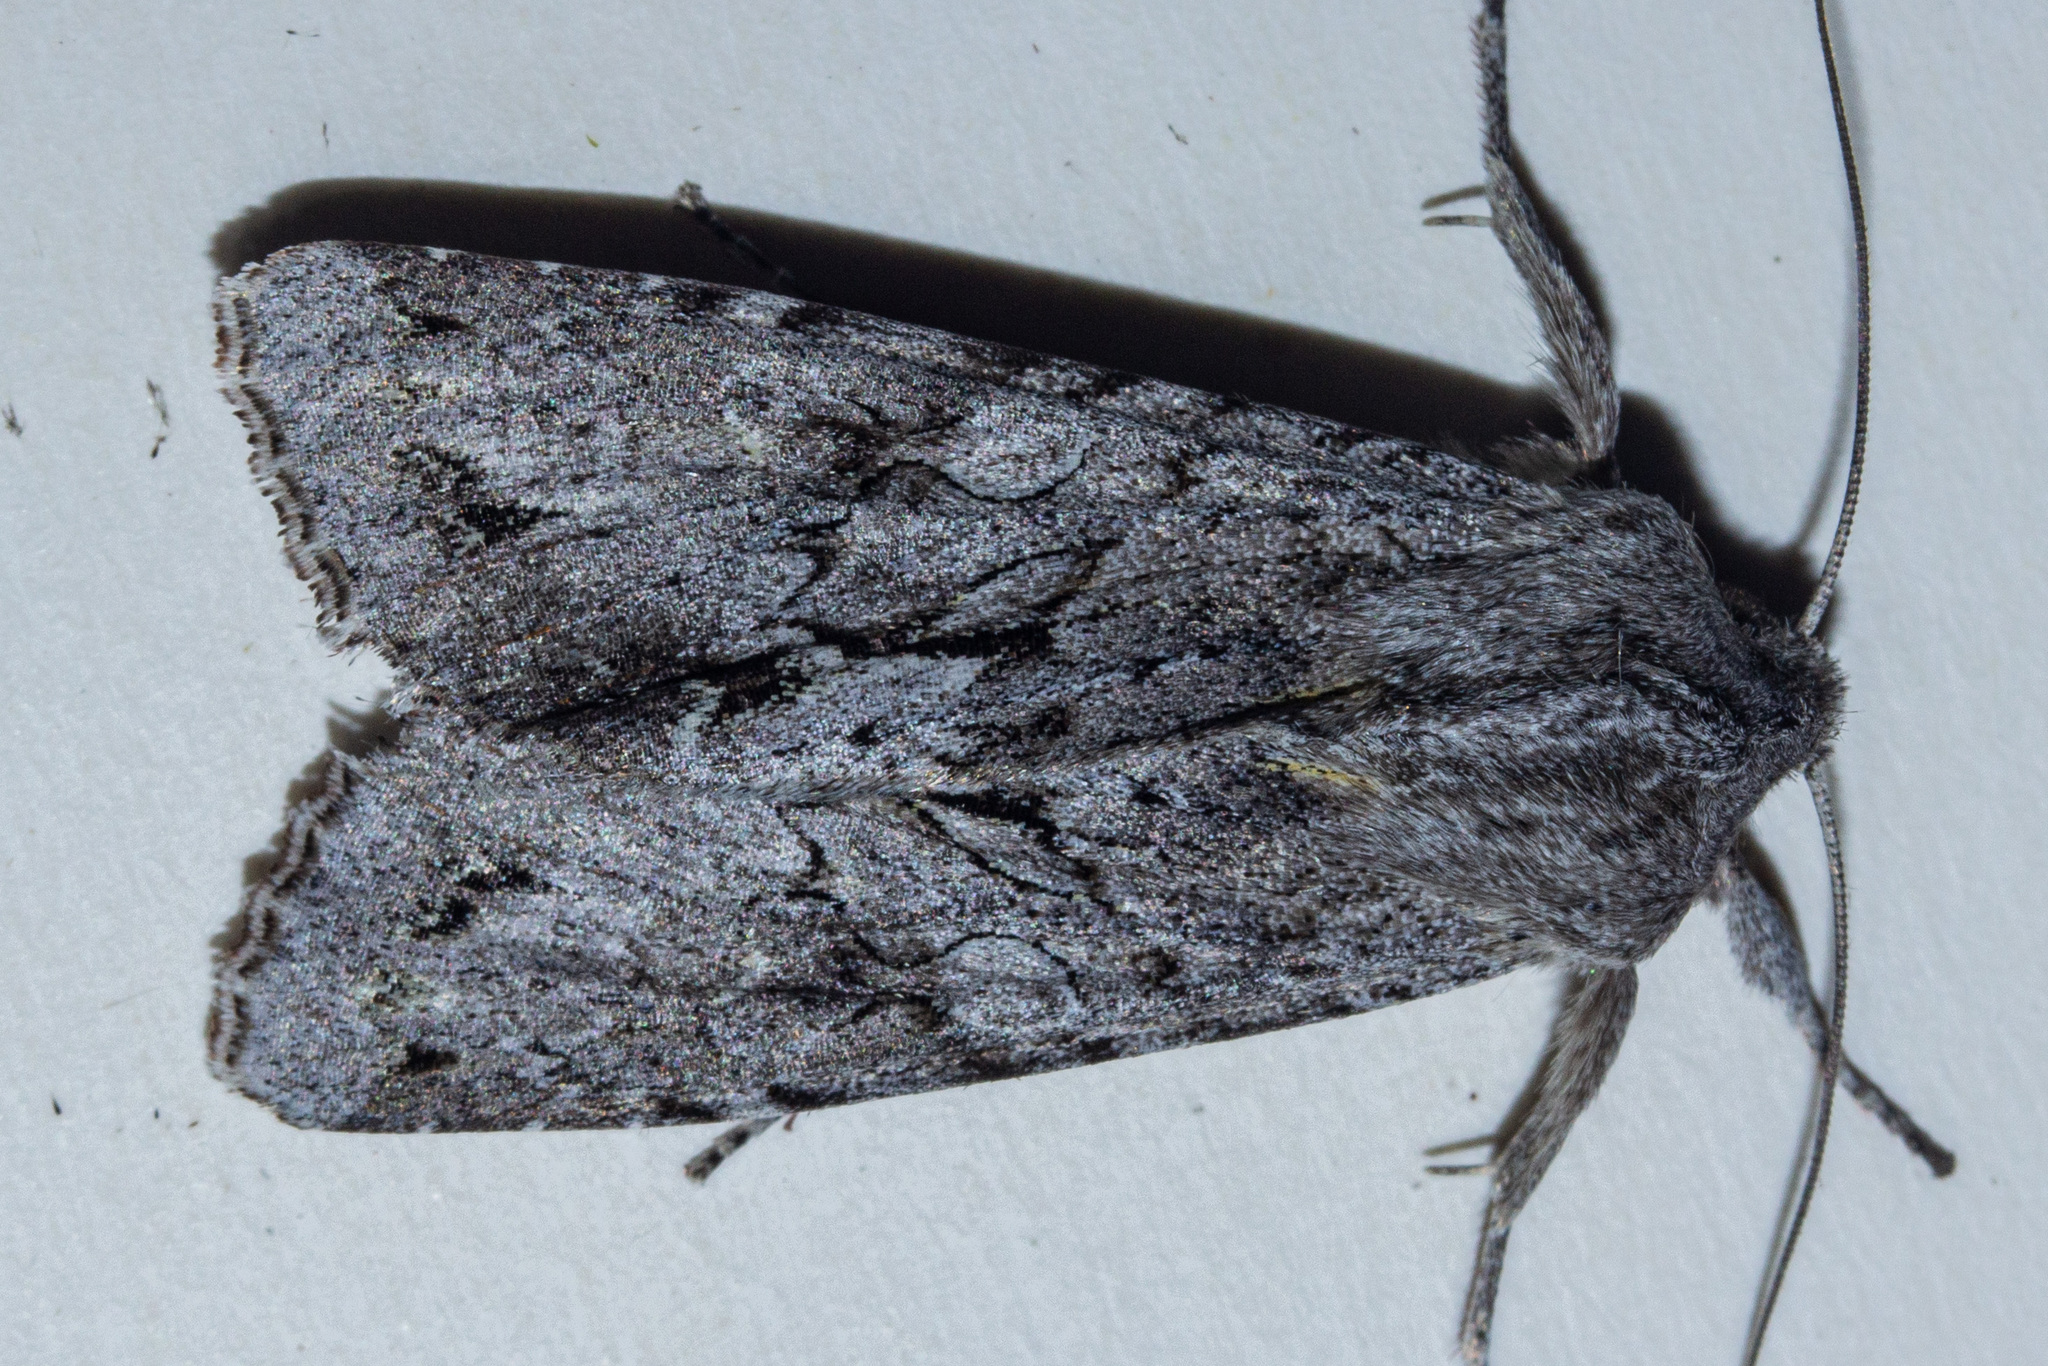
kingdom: Animalia
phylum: Arthropoda
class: Insecta
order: Lepidoptera
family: Noctuidae
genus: Ichneutica
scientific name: Ichneutica
